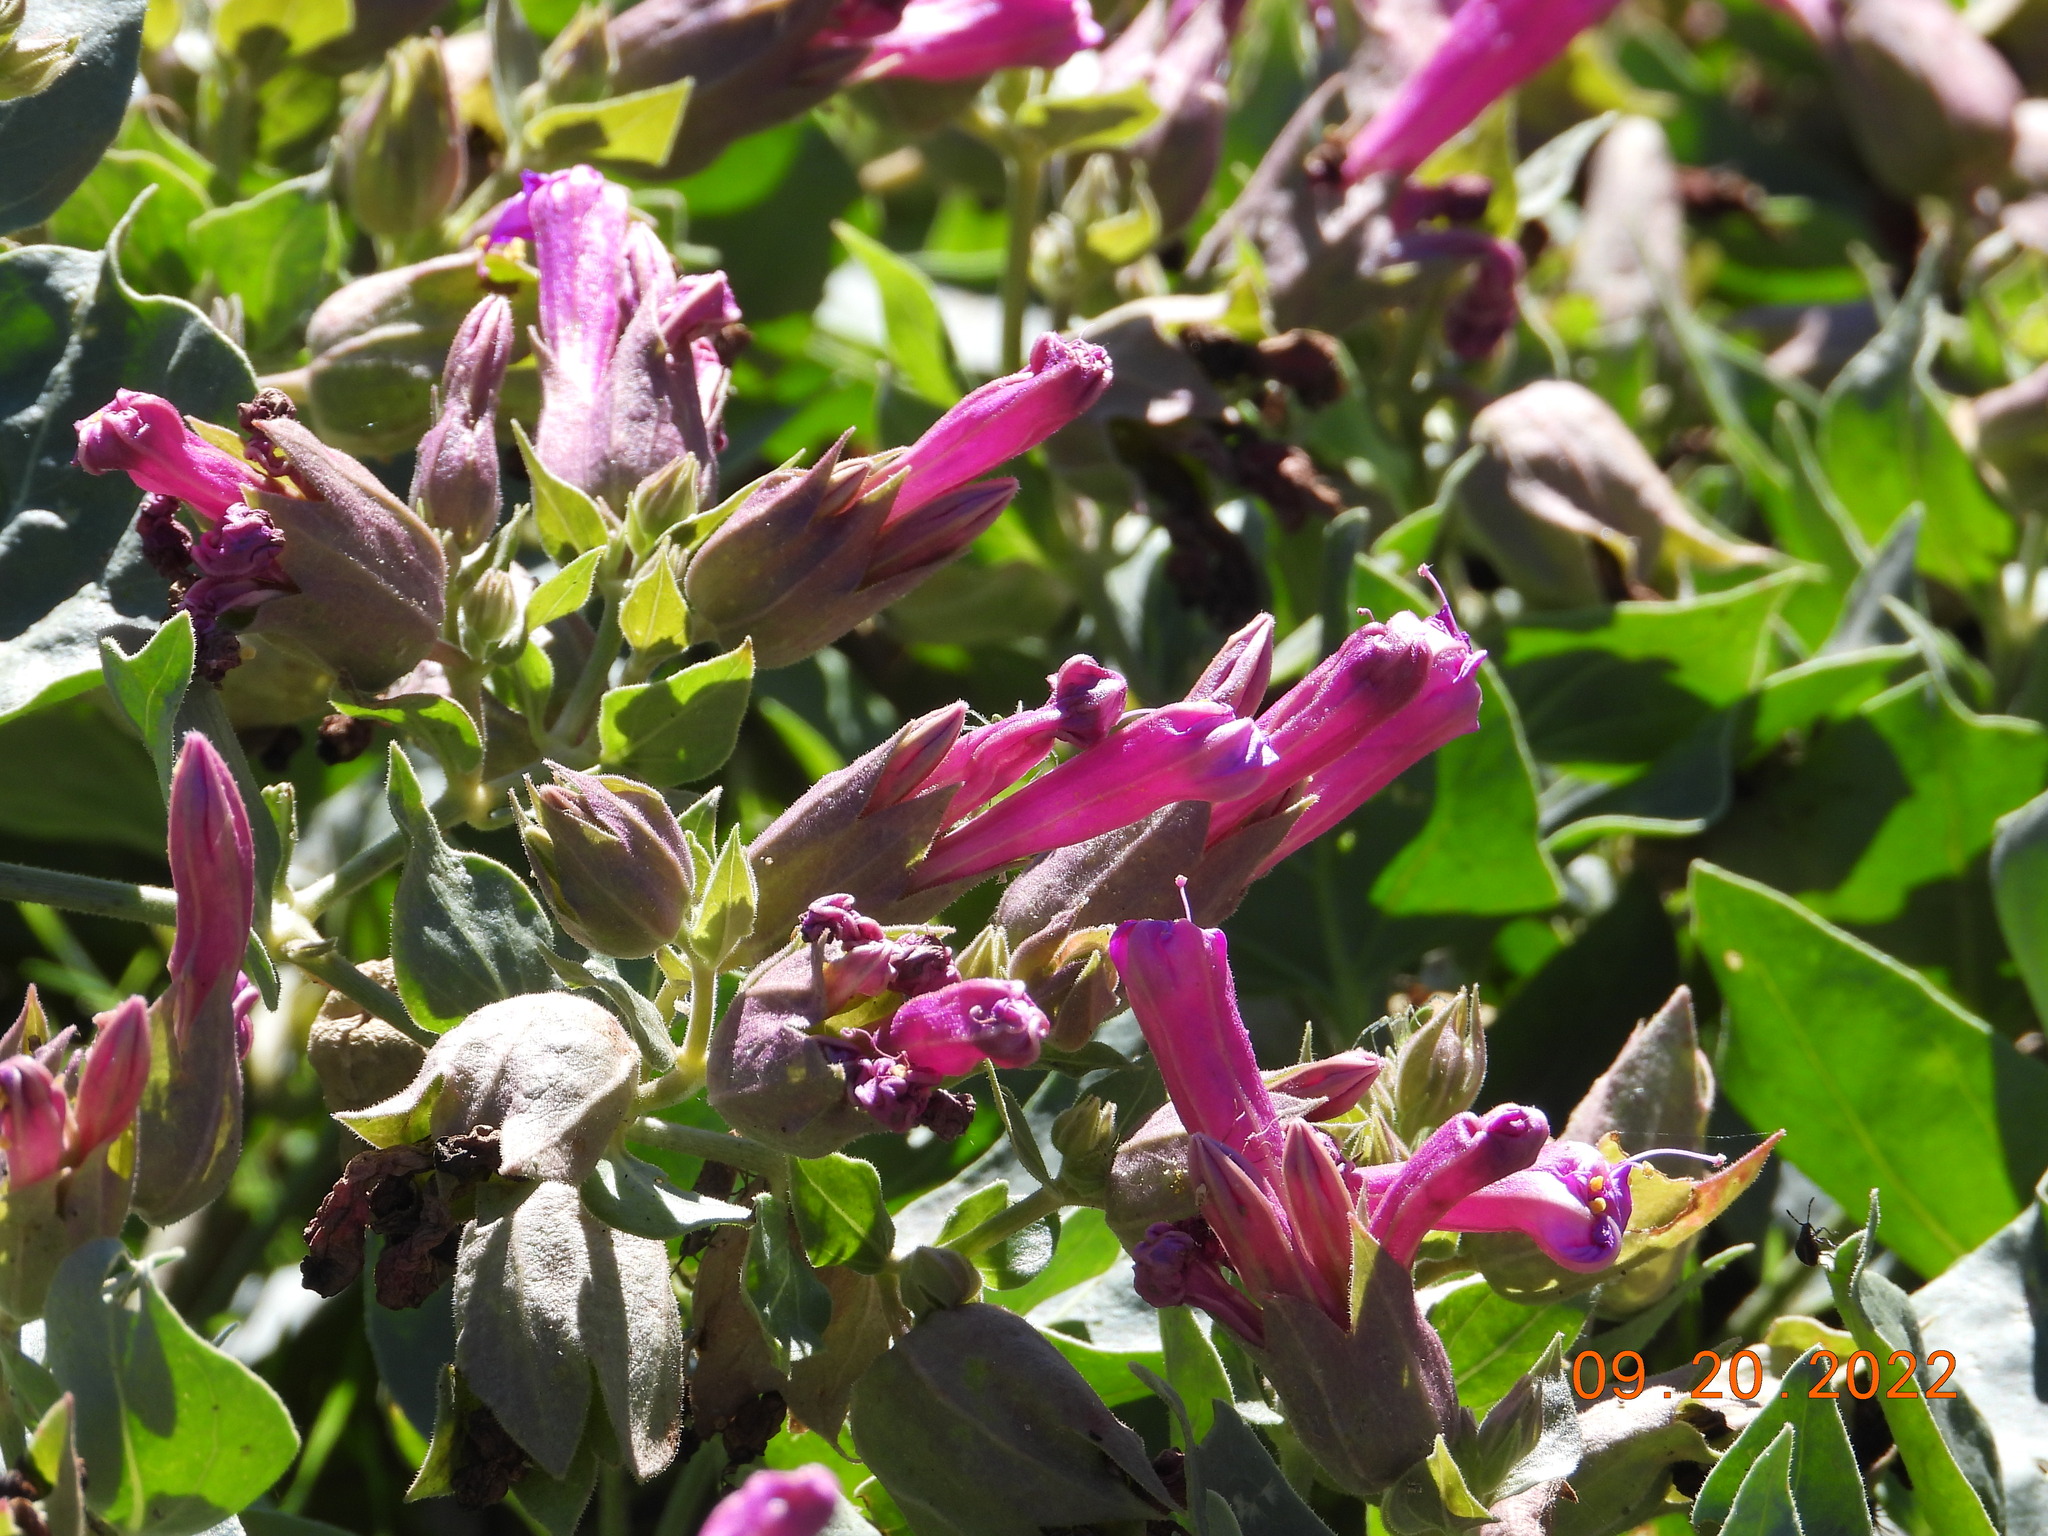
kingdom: Plantae
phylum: Tracheophyta
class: Magnoliopsida
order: Caryophyllales
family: Nyctaginaceae
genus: Mirabilis
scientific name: Mirabilis multiflora
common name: Froebel's four-o'clock
